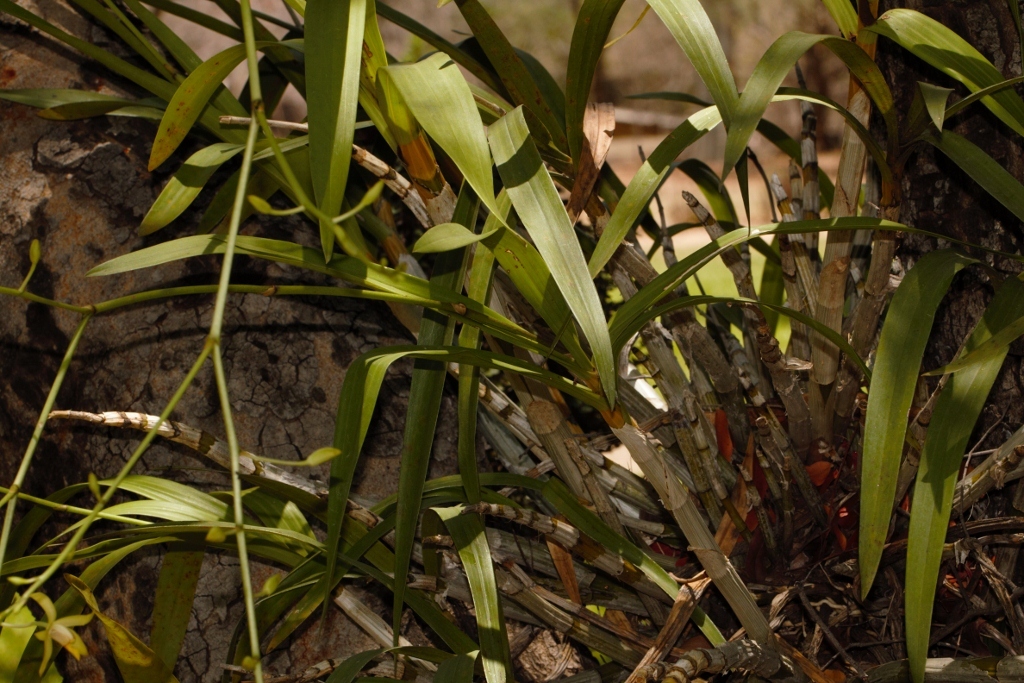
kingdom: Plantae
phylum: Tracheophyta
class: Liliopsida
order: Asparagales
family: Orchidaceae
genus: Ansellia
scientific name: Ansellia africana
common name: African ansellia
